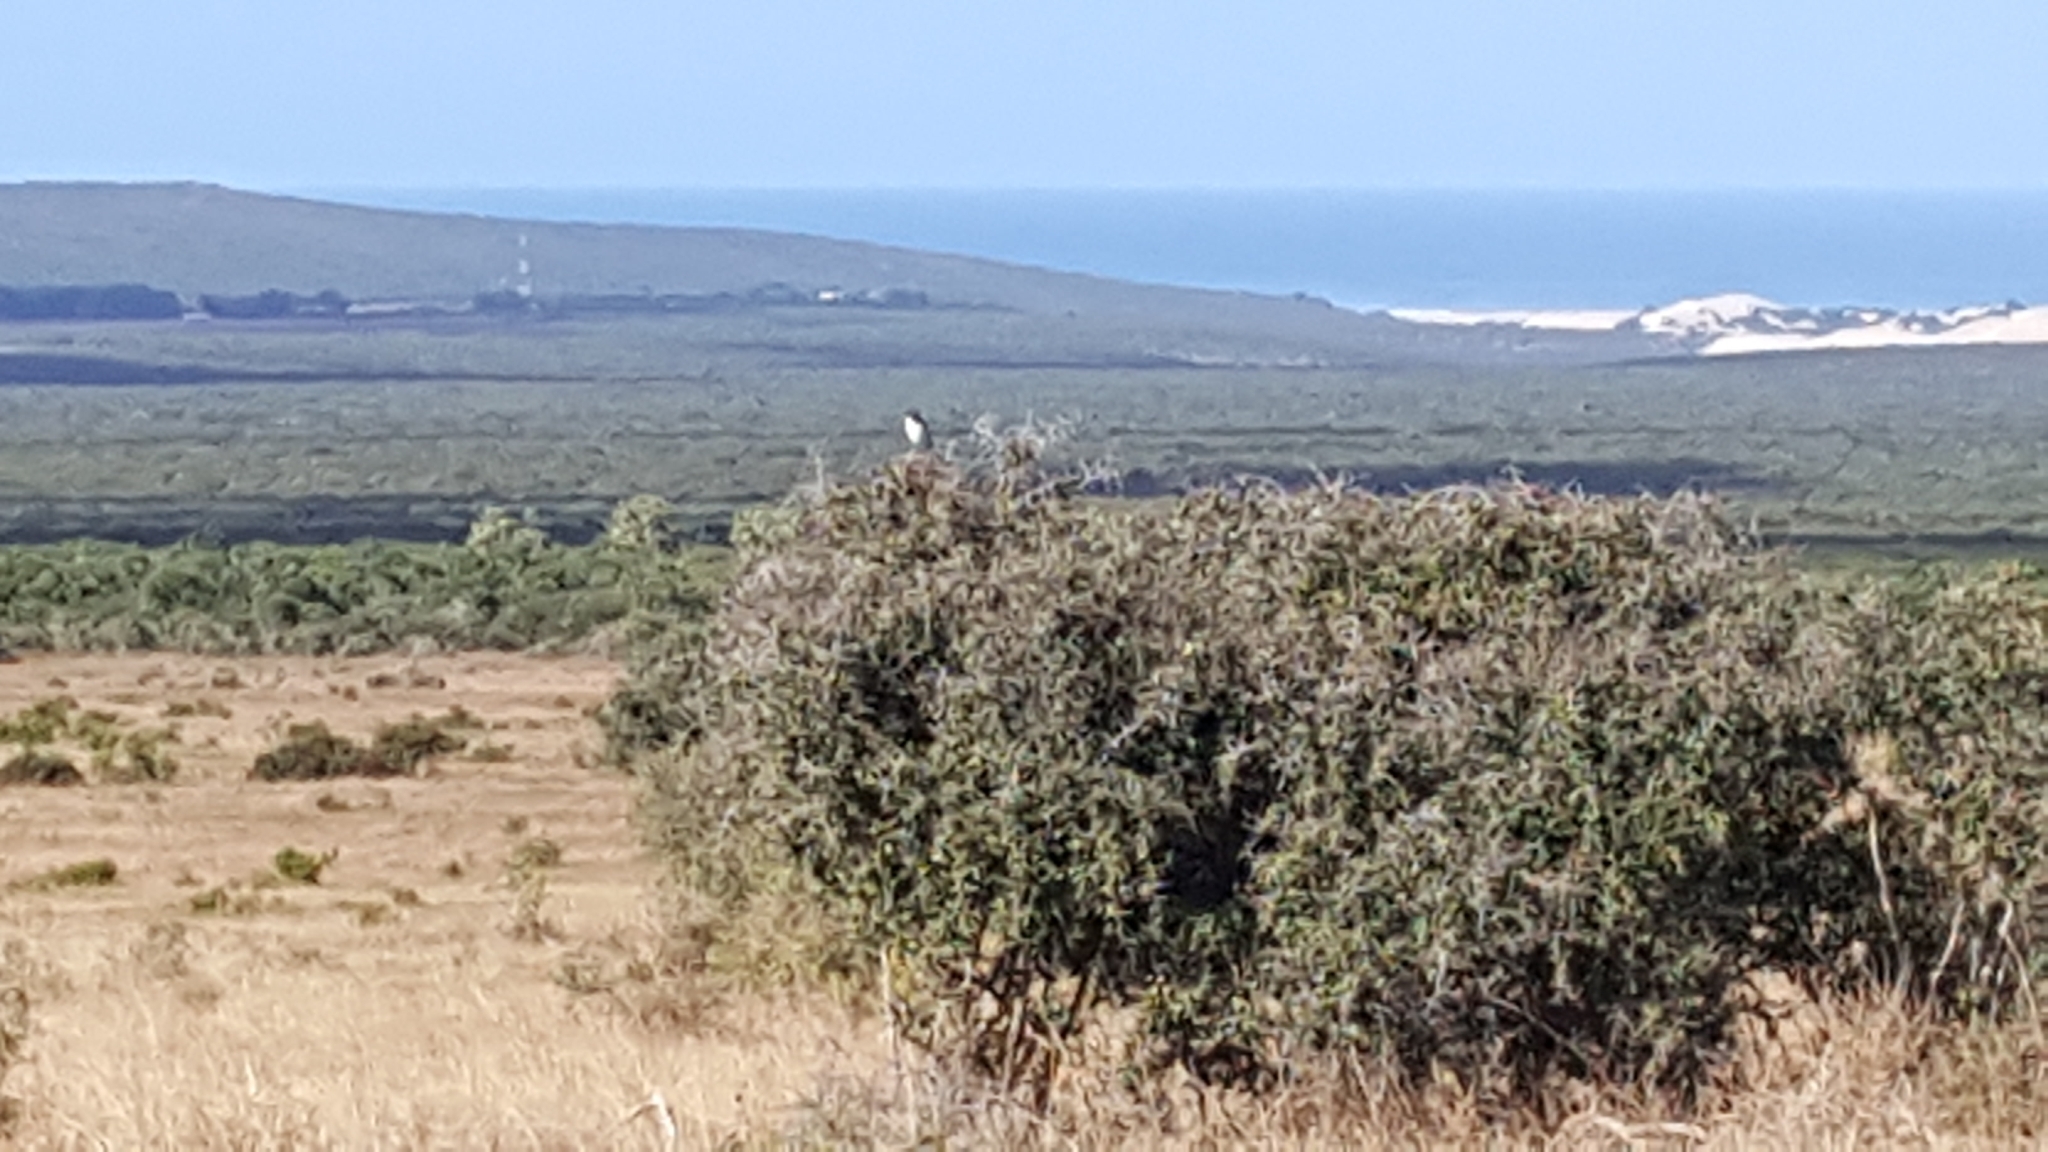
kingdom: Animalia
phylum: Chordata
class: Aves
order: Passeriformes
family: Laniidae
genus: Lanius
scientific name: Lanius collaris
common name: Southern fiscal
